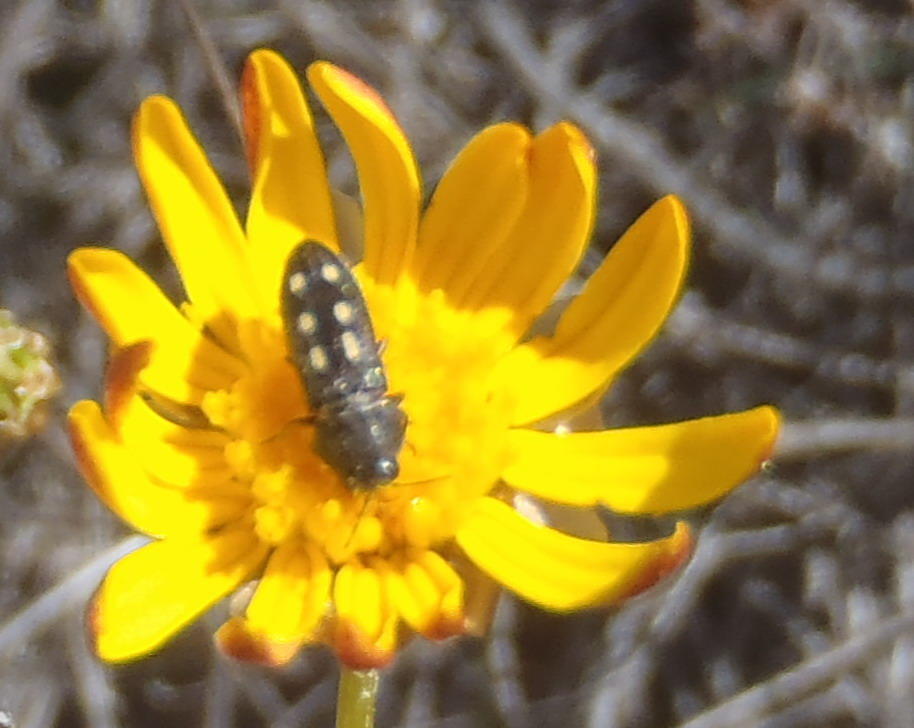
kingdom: Animalia
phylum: Arthropoda
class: Insecta
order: Coleoptera
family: Buprestidae
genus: Acmaeodera
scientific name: Acmaeodera bistriguttata
